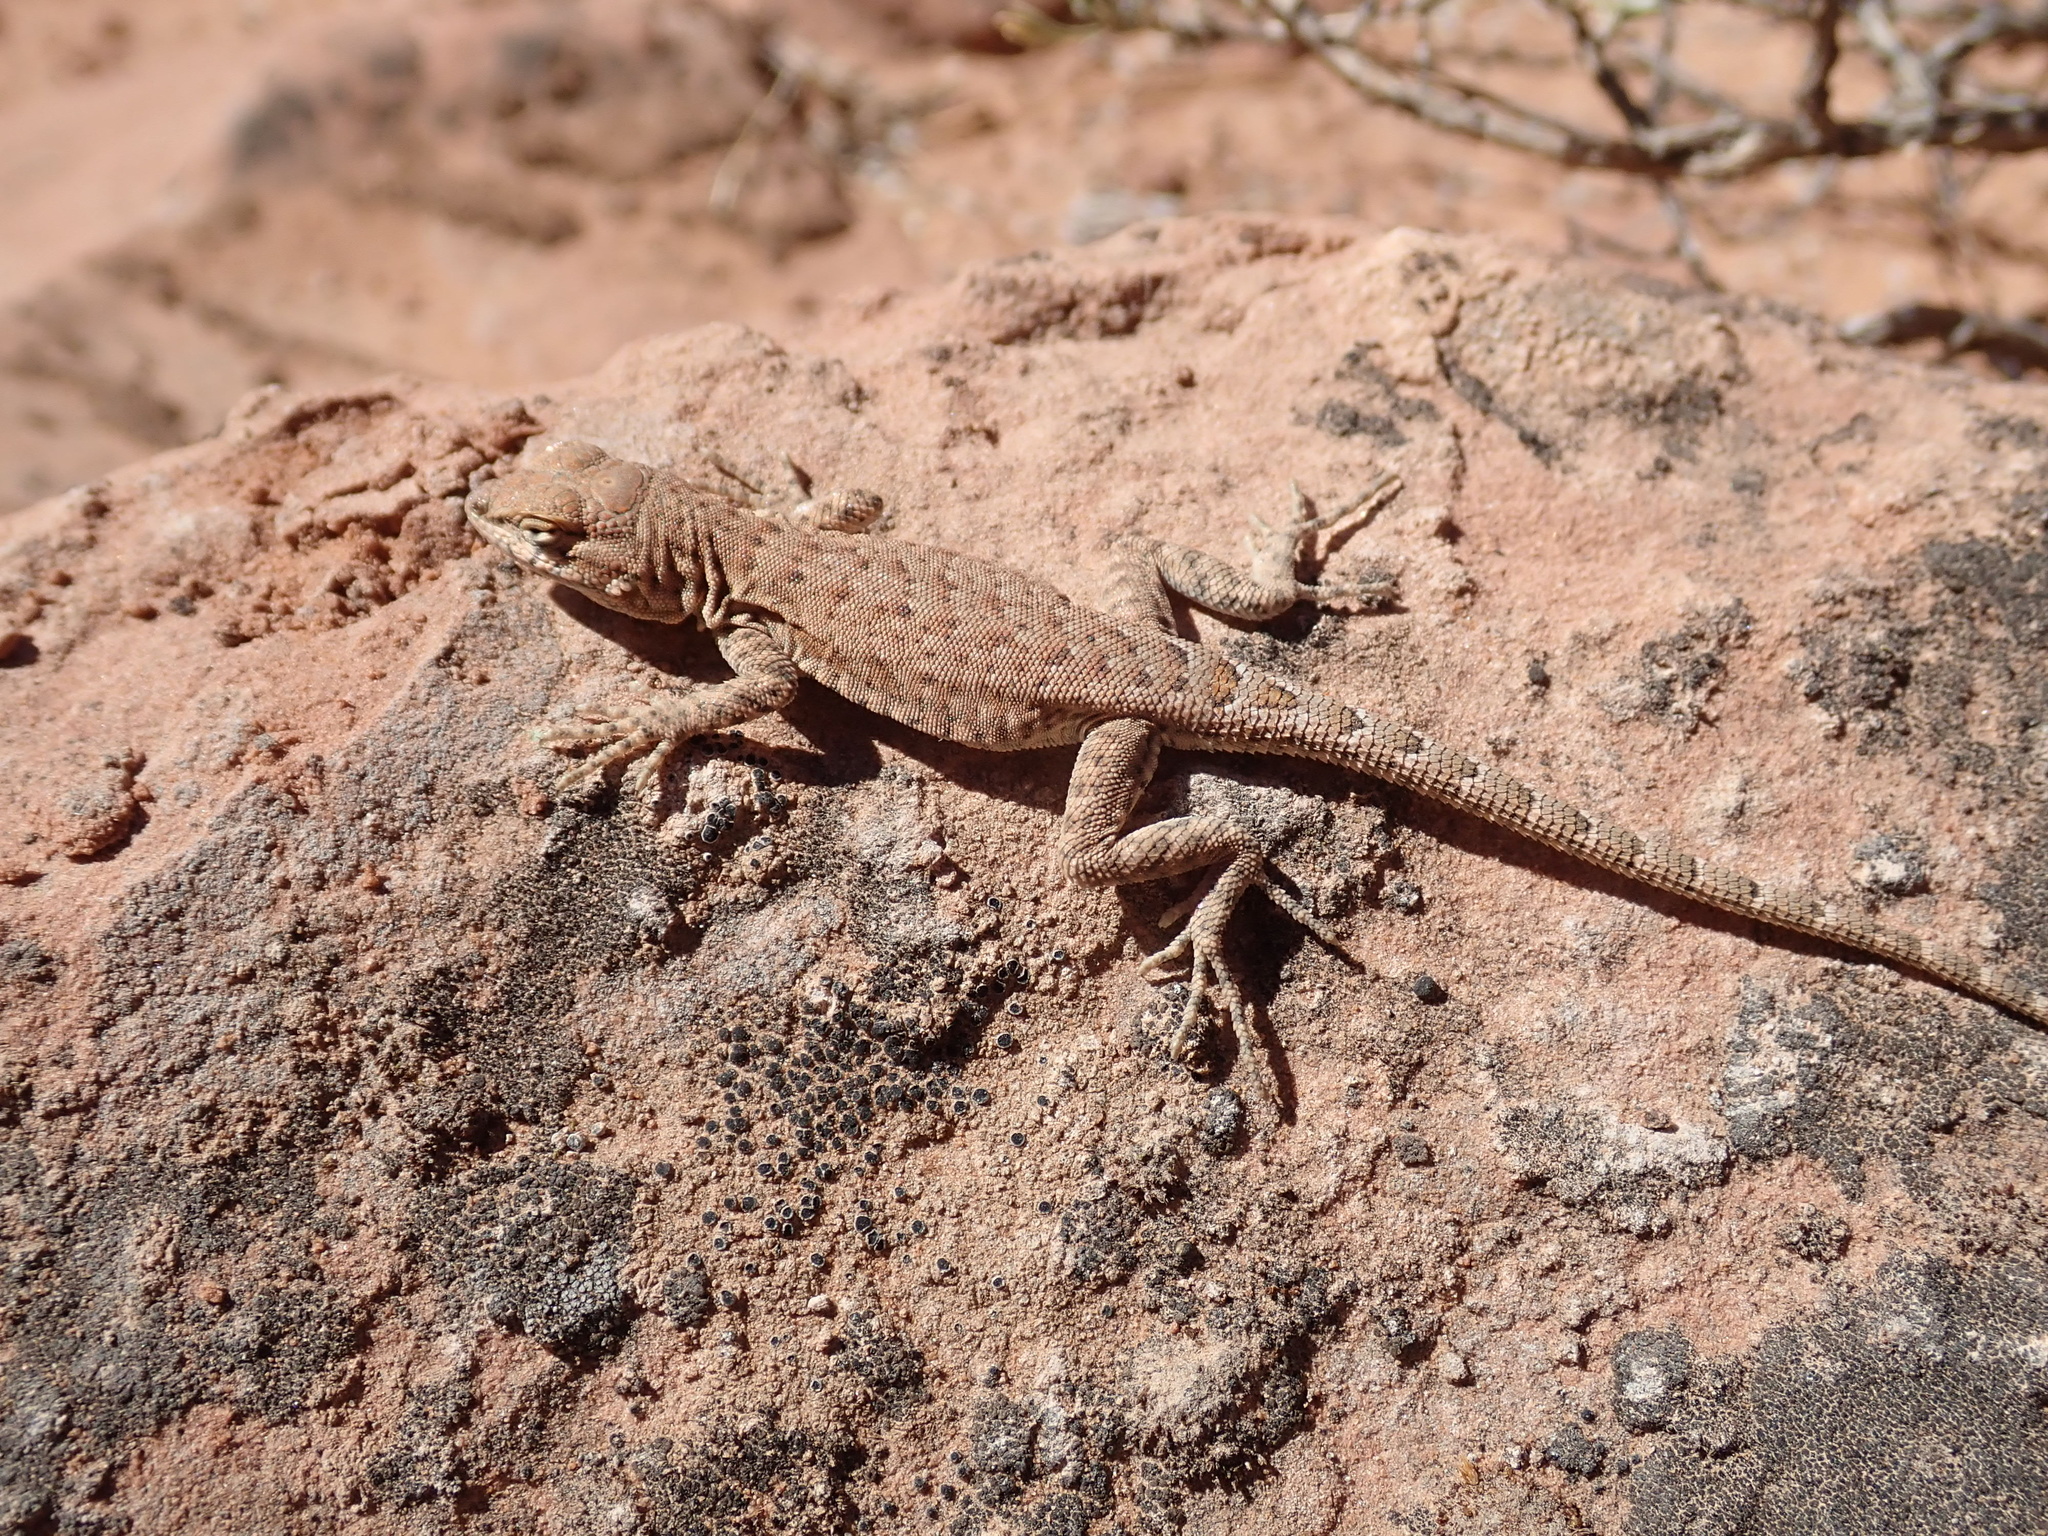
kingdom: Animalia
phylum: Chordata
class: Squamata
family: Phrynosomatidae
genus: Uta
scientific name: Uta stansburiana
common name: Side-blotched lizard
